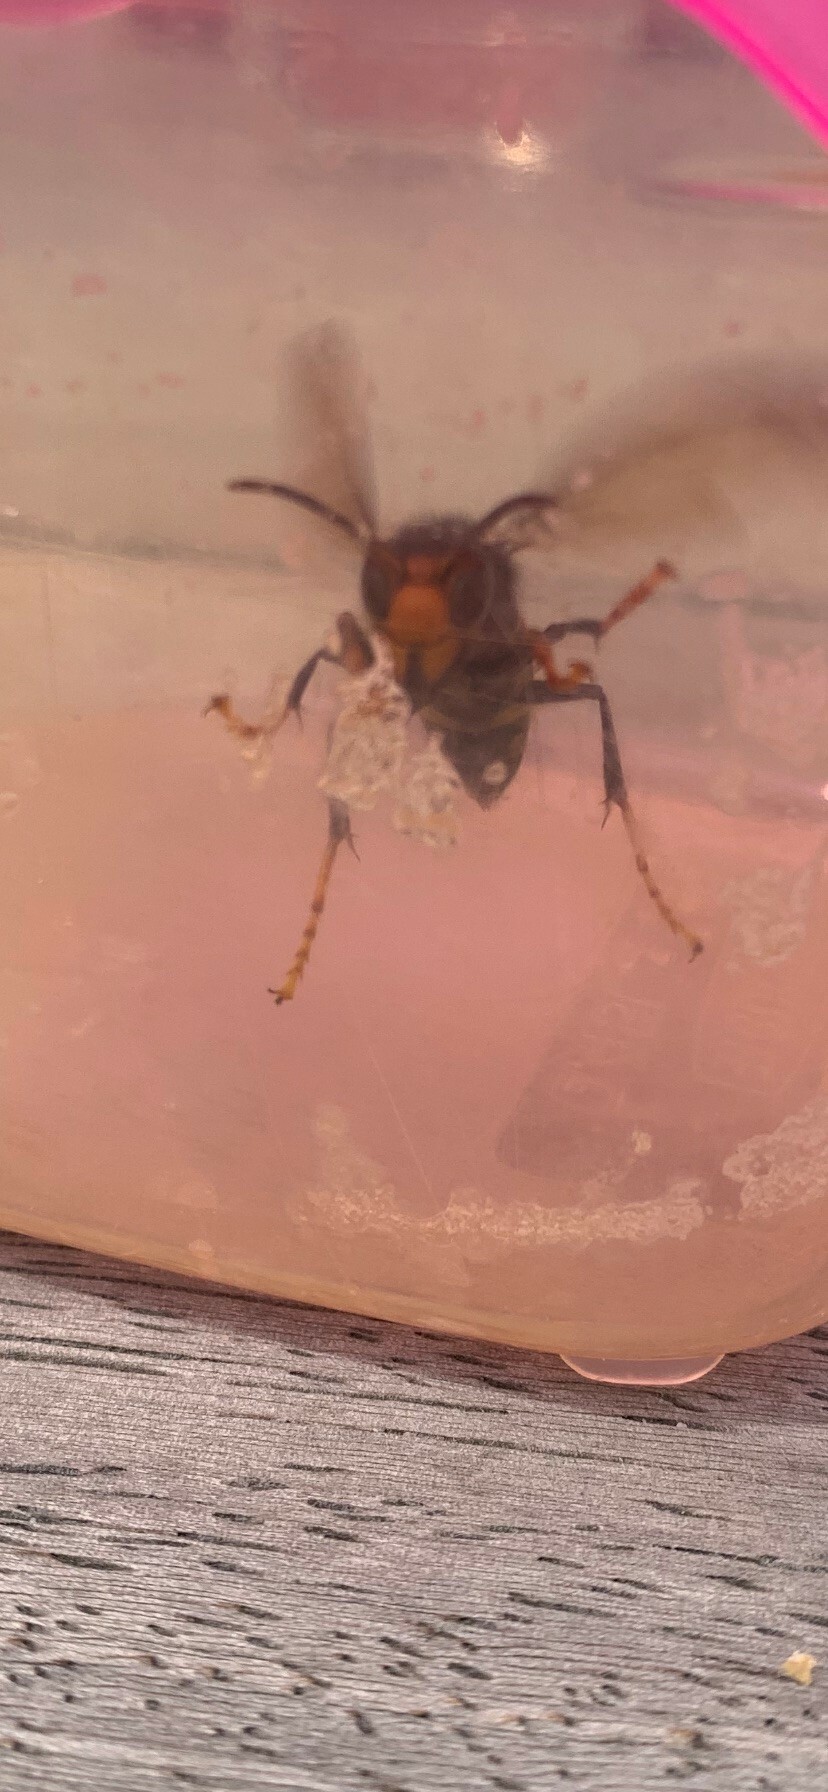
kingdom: Animalia
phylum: Arthropoda
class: Insecta
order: Hymenoptera
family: Vespidae
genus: Vespa
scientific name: Vespa velutina
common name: Asian hornet
